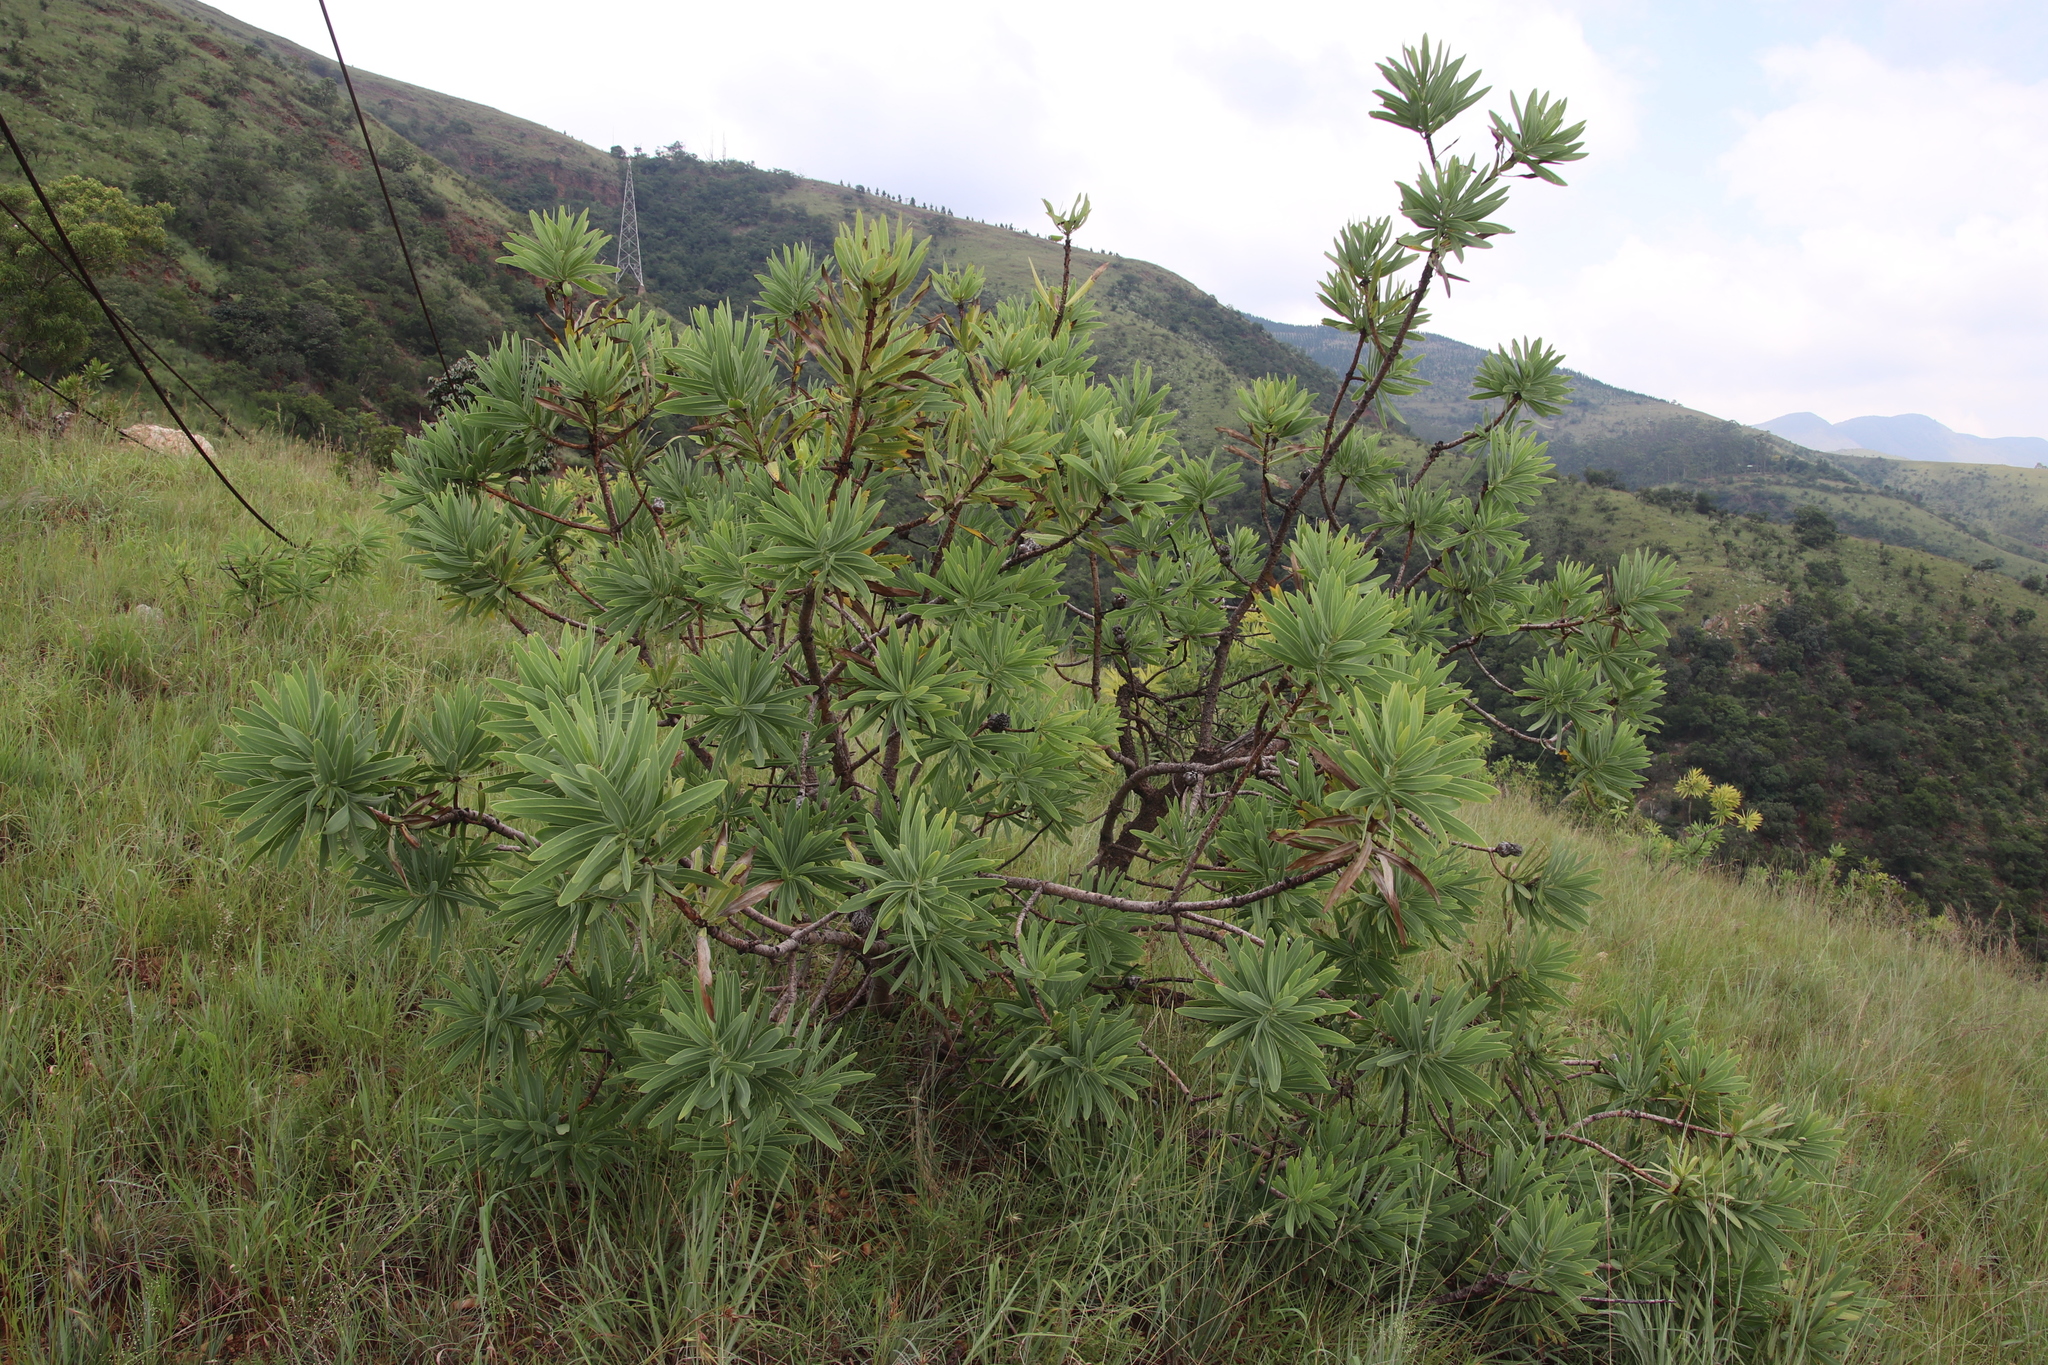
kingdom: Plantae
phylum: Tracheophyta
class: Magnoliopsida
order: Proteales
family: Proteaceae
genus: Protea
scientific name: Protea gaguedi
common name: African protea
